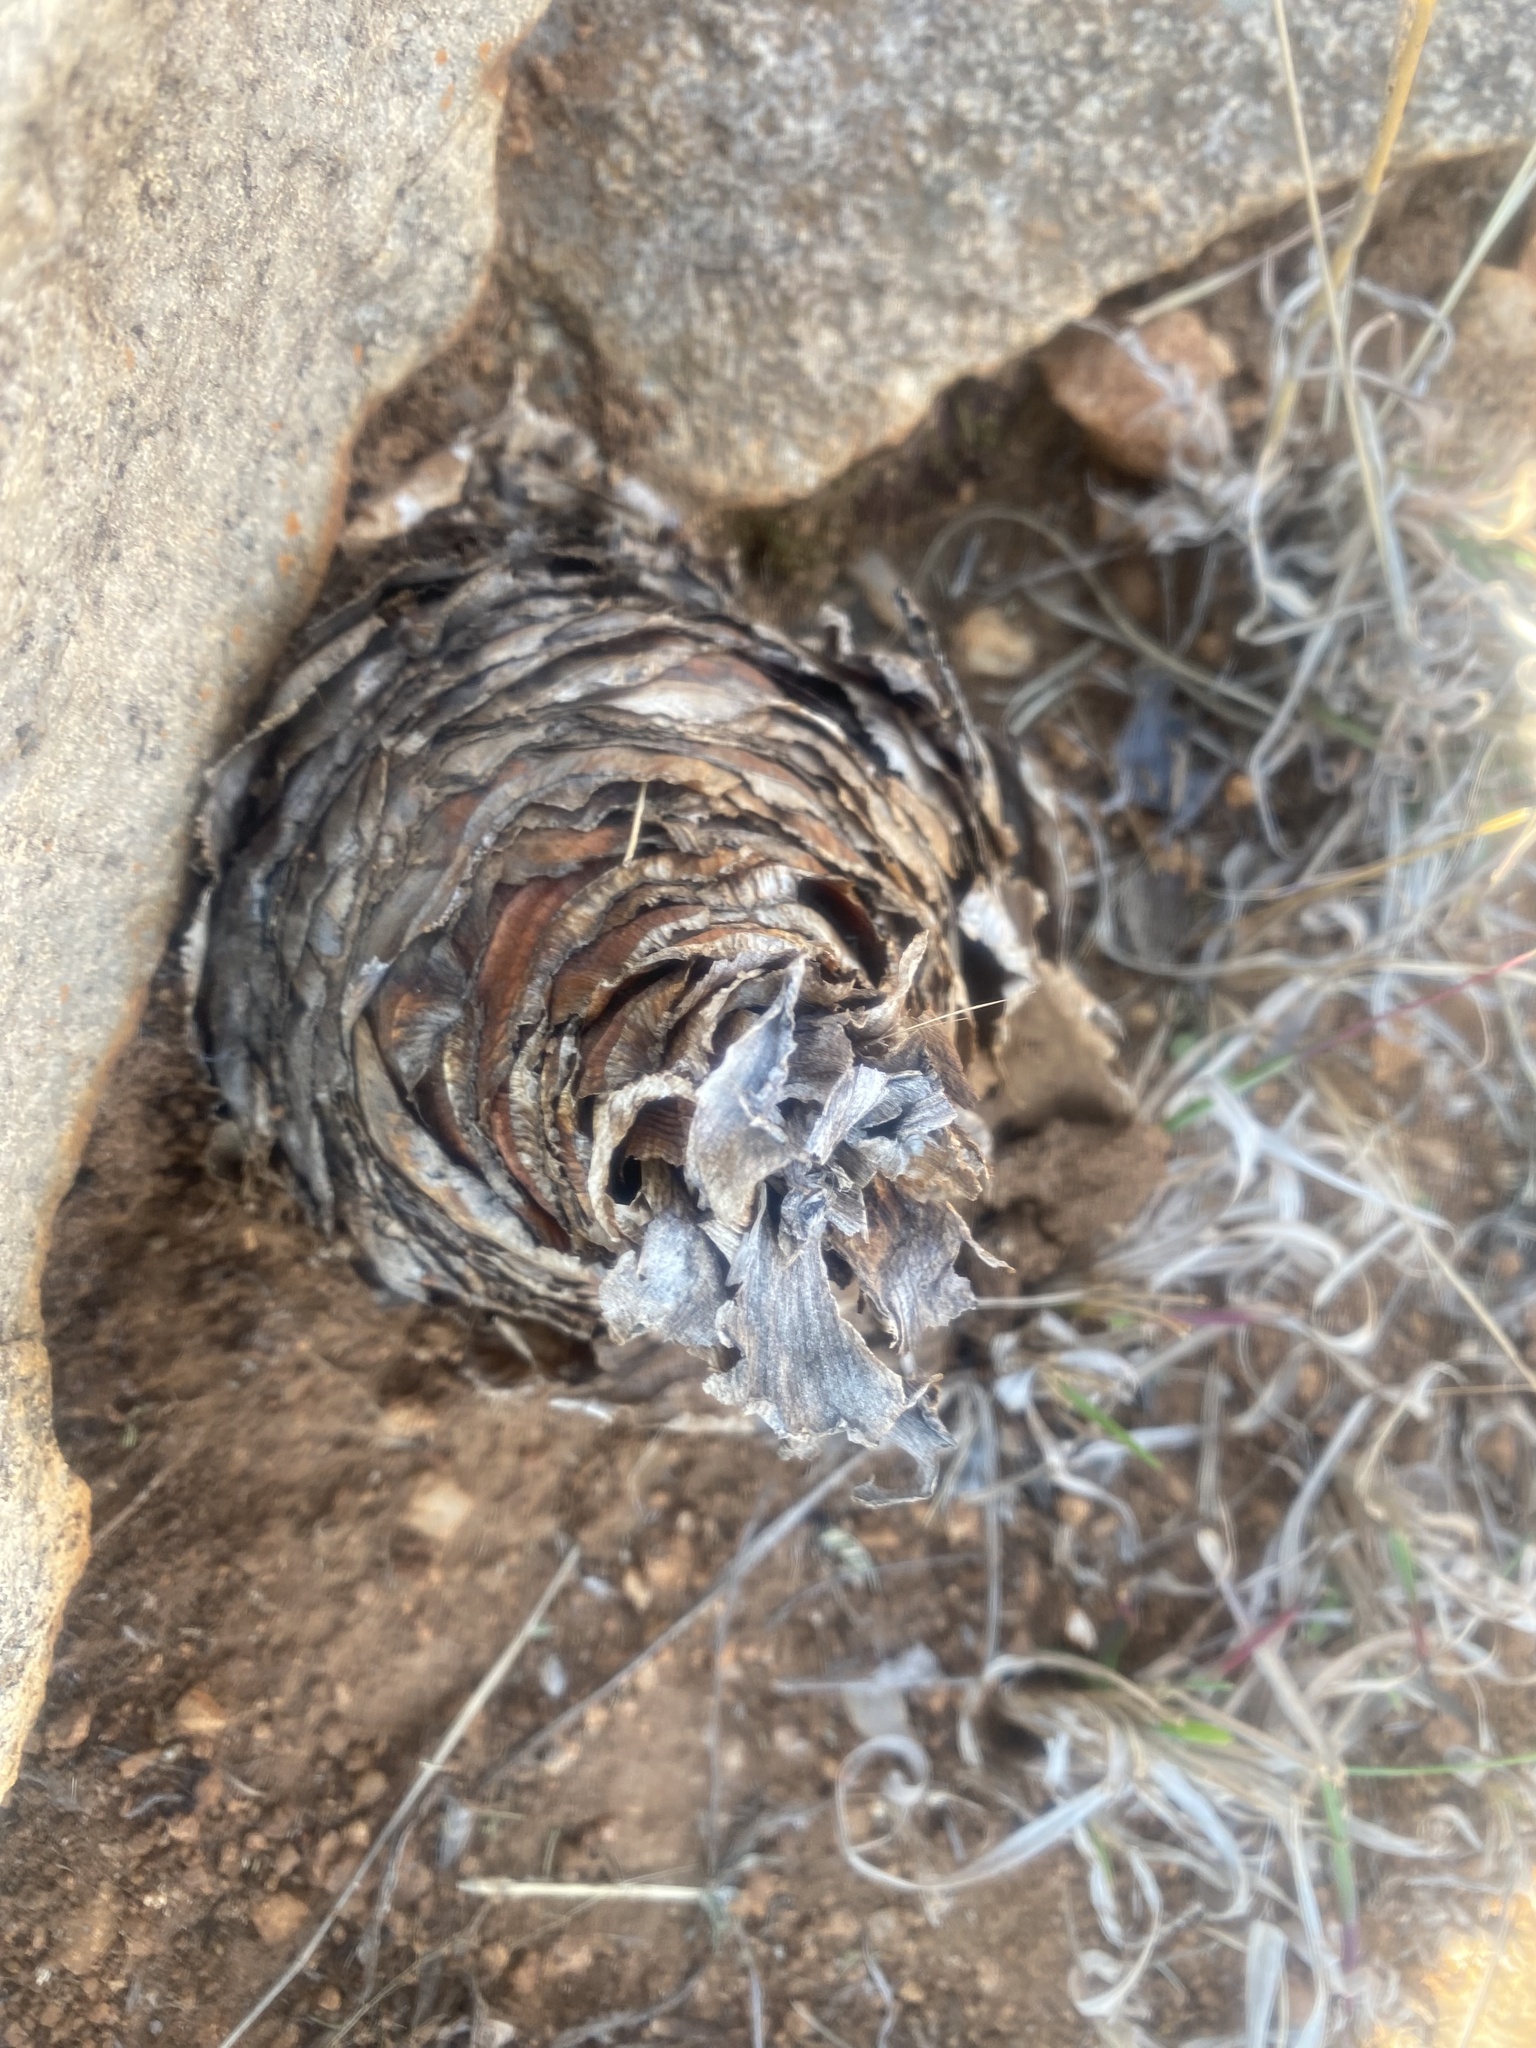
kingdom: Plantae
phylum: Tracheophyta
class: Liliopsida
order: Asparagales
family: Asparagaceae
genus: Drimia
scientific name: Drimia altissima
